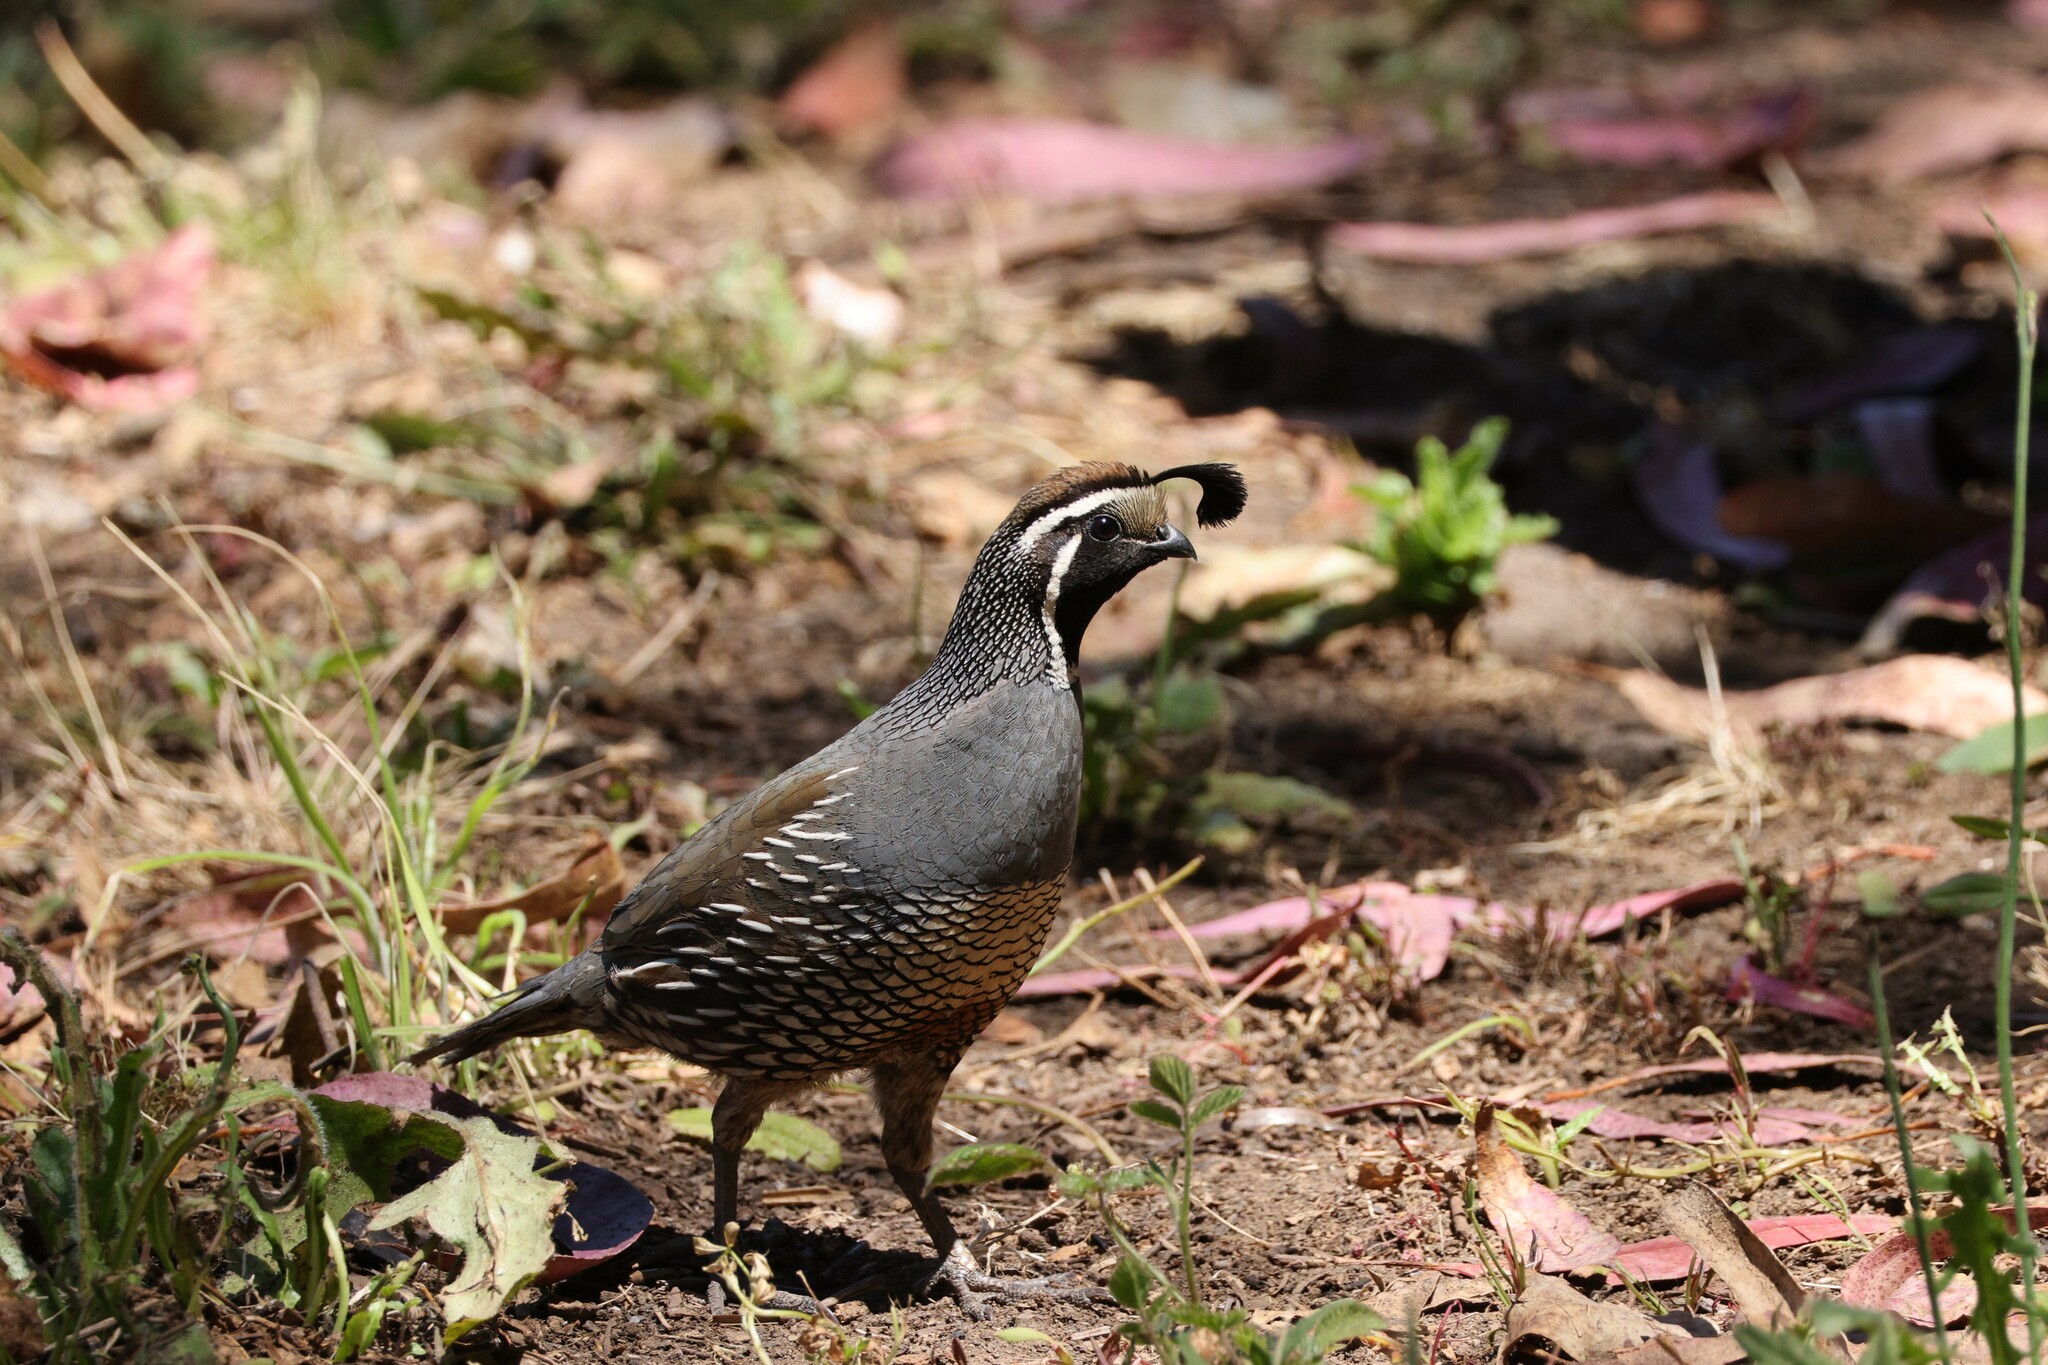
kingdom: Animalia
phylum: Chordata
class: Aves
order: Galliformes
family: Odontophoridae
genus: Callipepla
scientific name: Callipepla californica
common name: California quail
